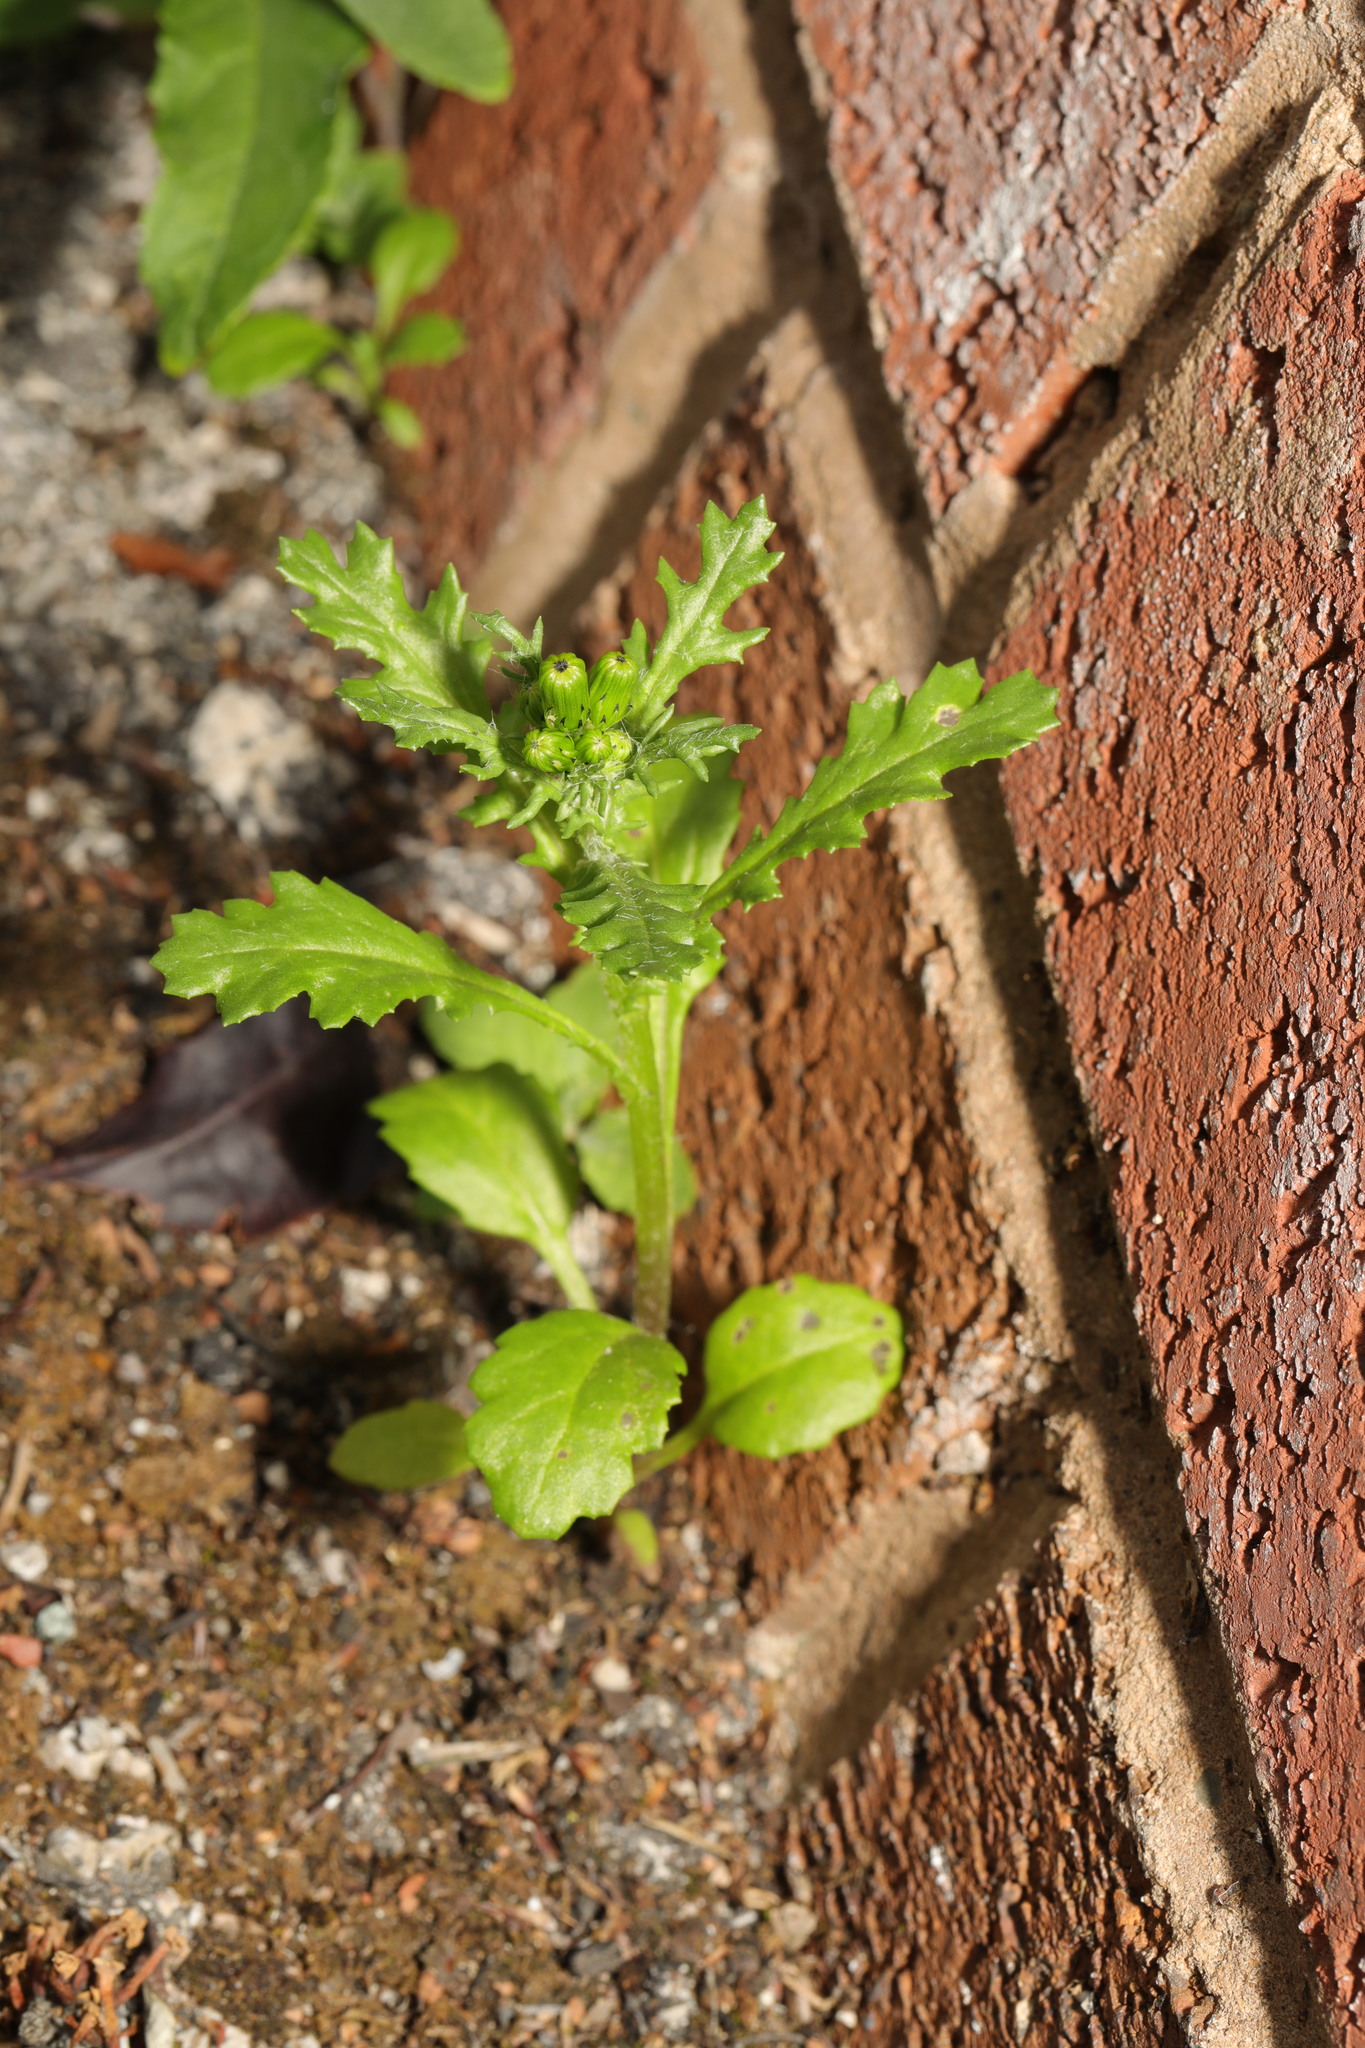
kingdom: Plantae
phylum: Tracheophyta
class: Magnoliopsida
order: Asterales
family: Asteraceae
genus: Senecio
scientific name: Senecio vulgaris
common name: Old-man-in-the-spring
